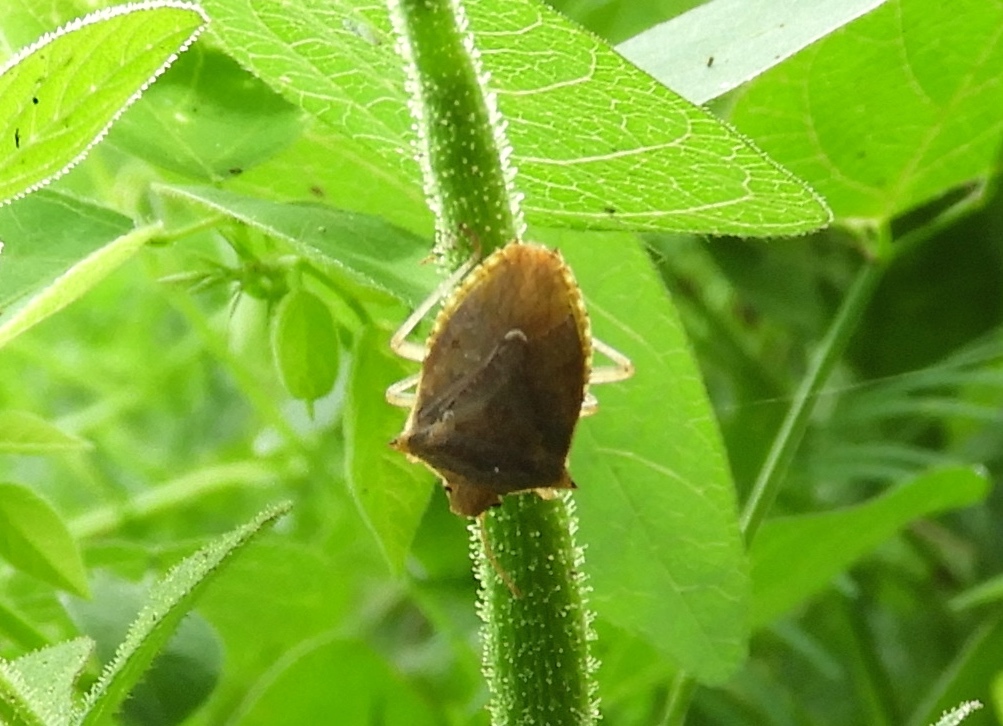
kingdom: Animalia
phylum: Arthropoda
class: Insecta
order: Hemiptera
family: Pentatomidae
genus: Euschistus
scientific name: Euschistus
